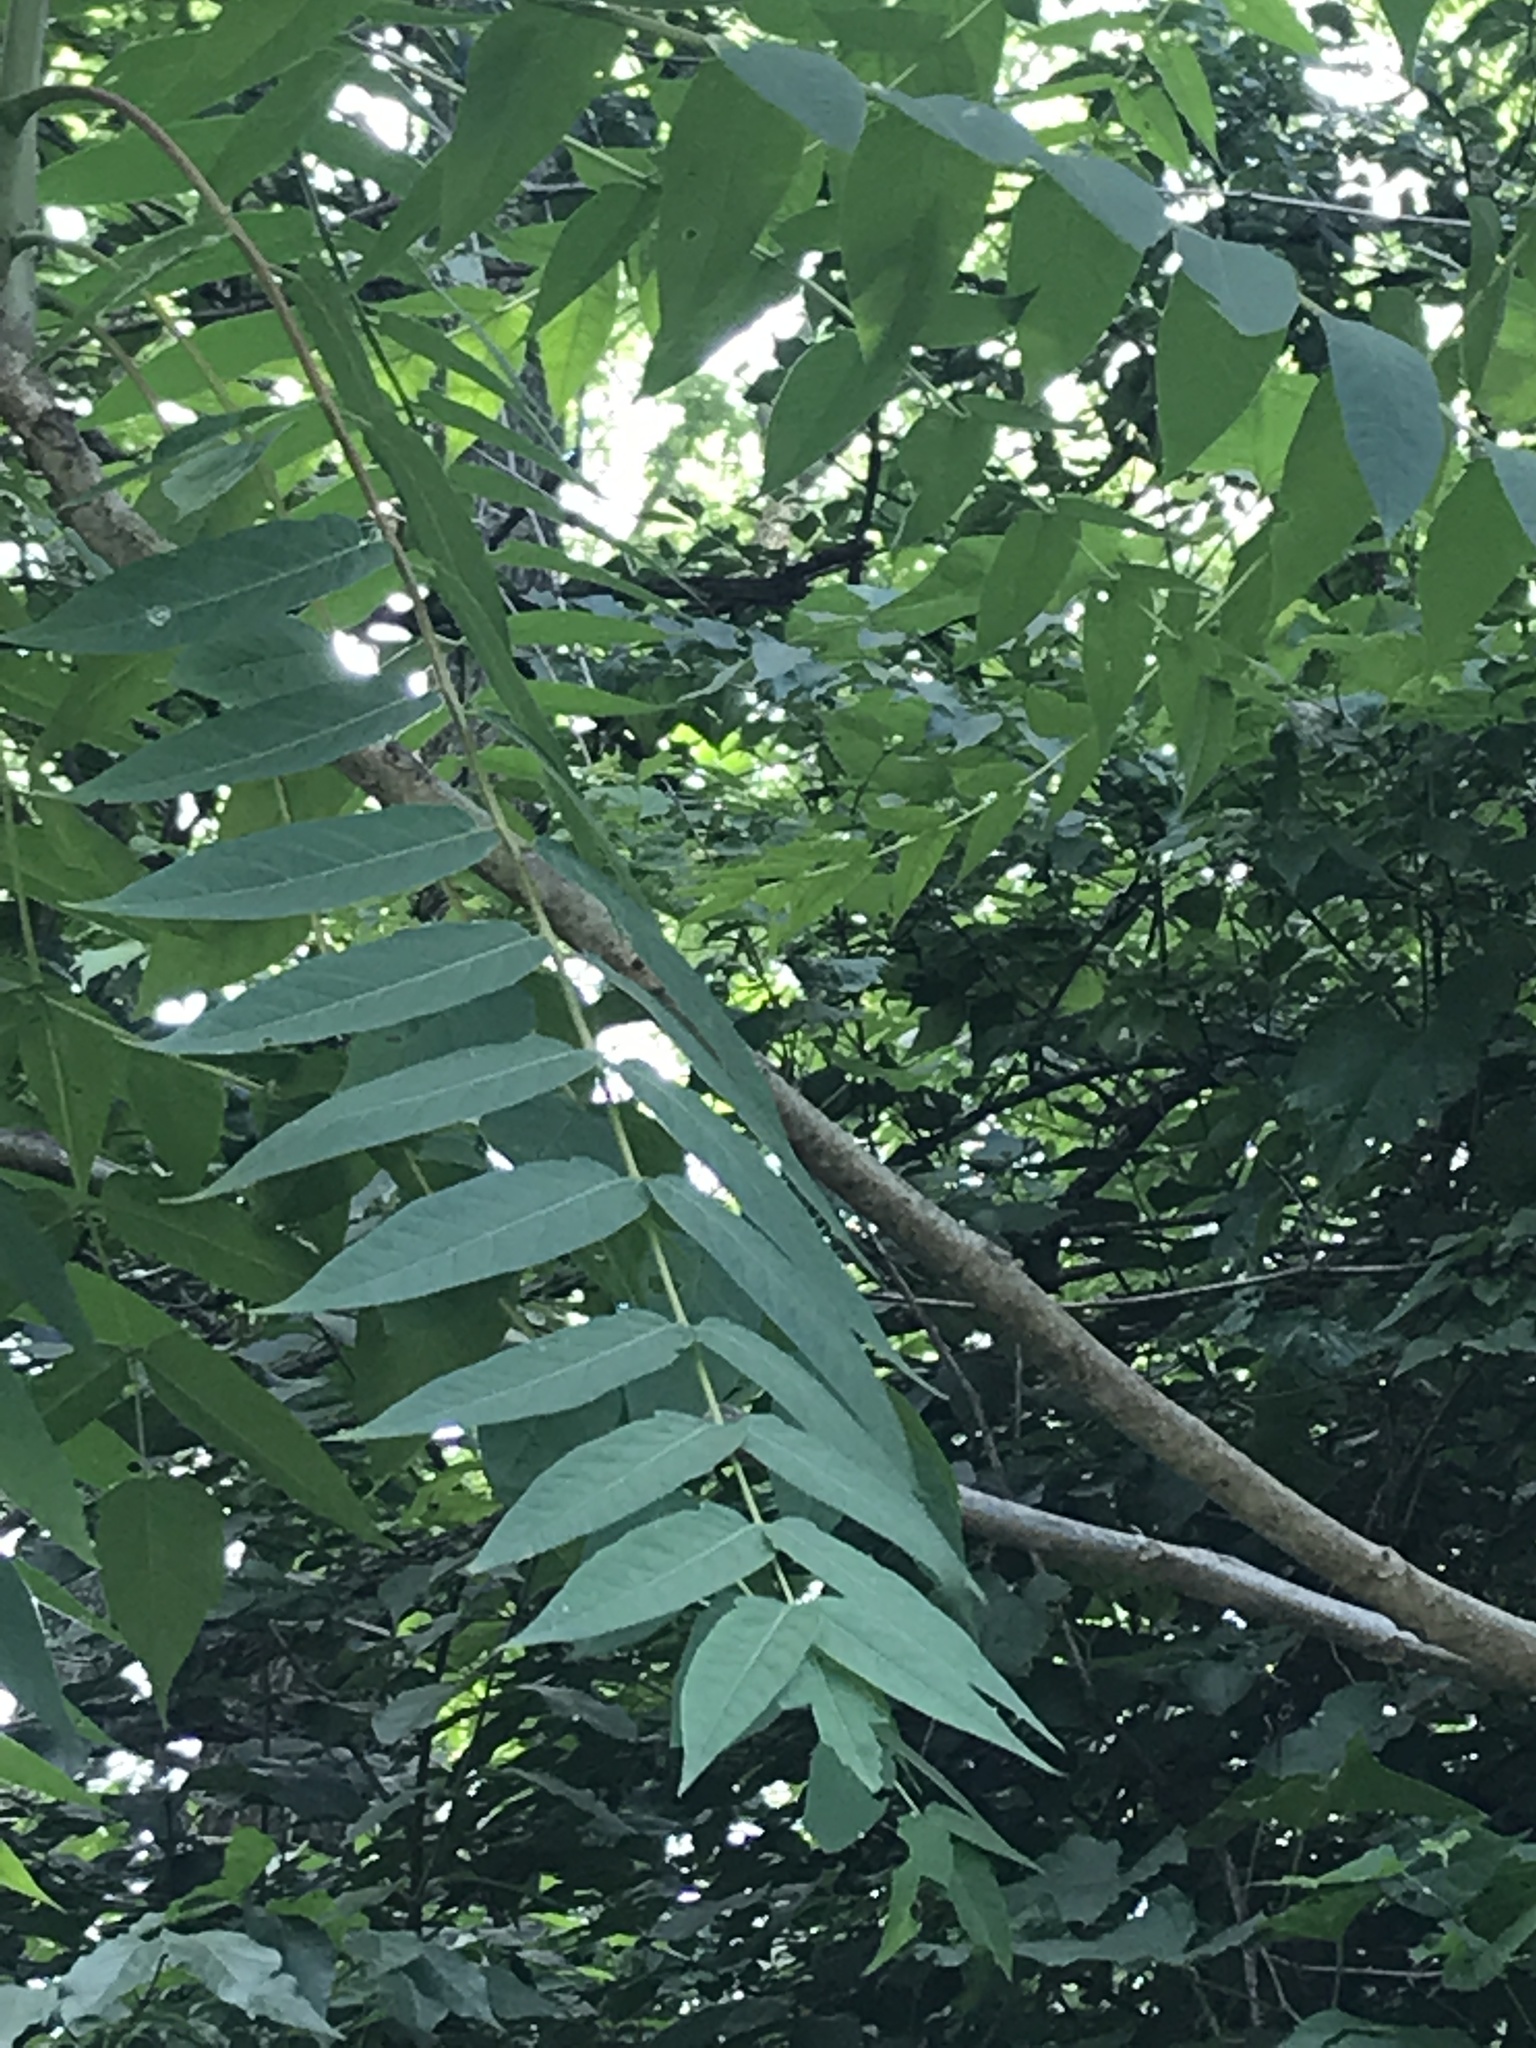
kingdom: Plantae
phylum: Tracheophyta
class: Magnoliopsida
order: Sapindales
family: Simaroubaceae
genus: Ailanthus
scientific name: Ailanthus altissima
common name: Tree-of-heaven
